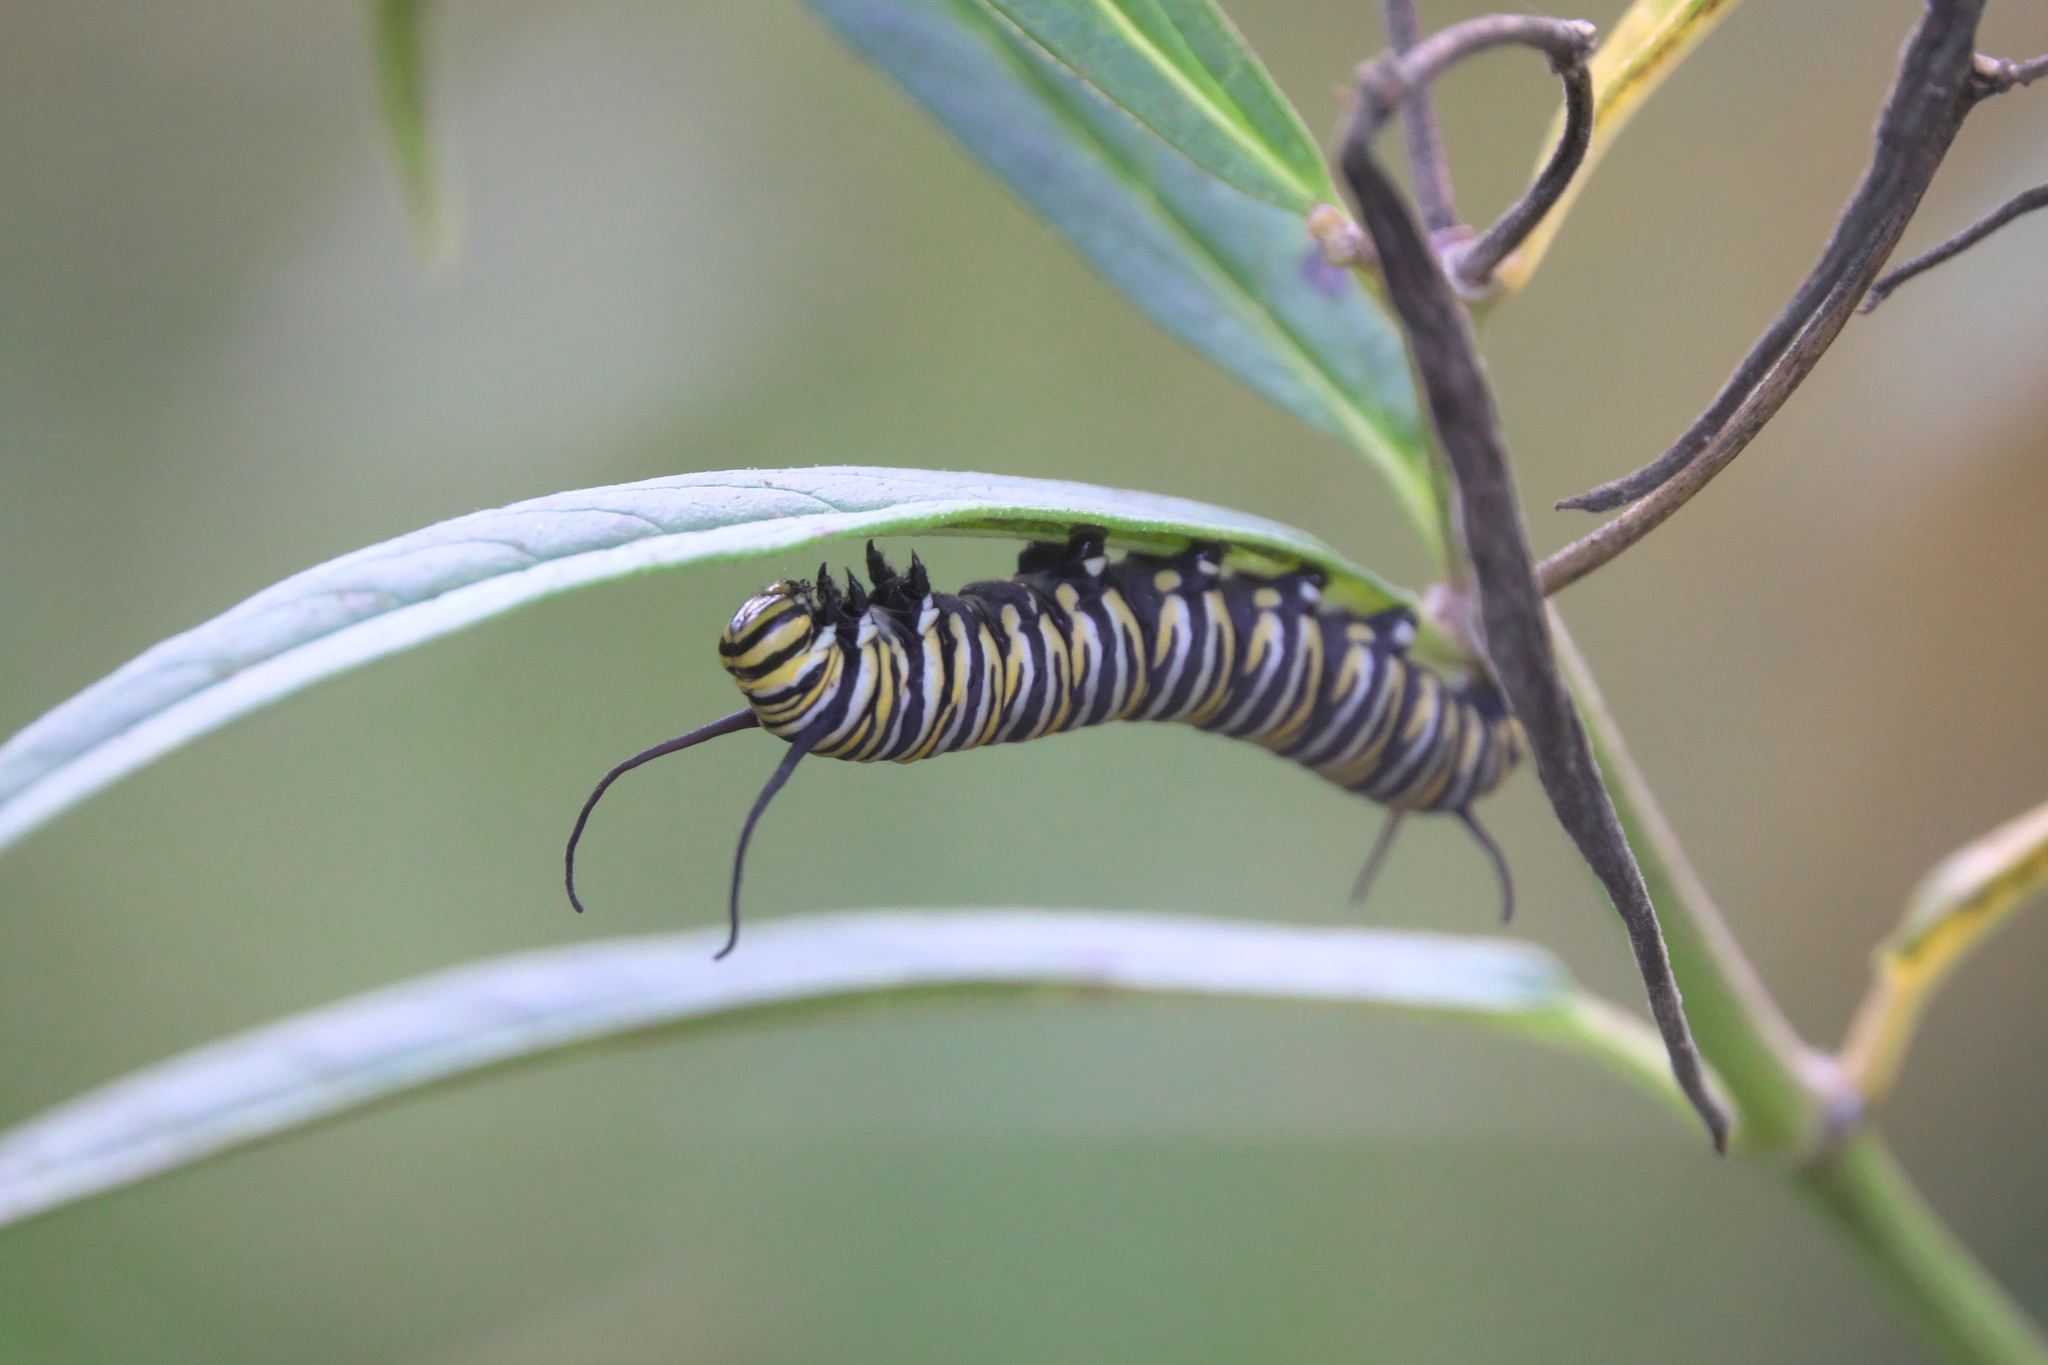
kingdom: Animalia
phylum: Arthropoda
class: Insecta
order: Lepidoptera
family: Nymphalidae
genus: Danaus
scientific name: Danaus plexippus
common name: Monarch
